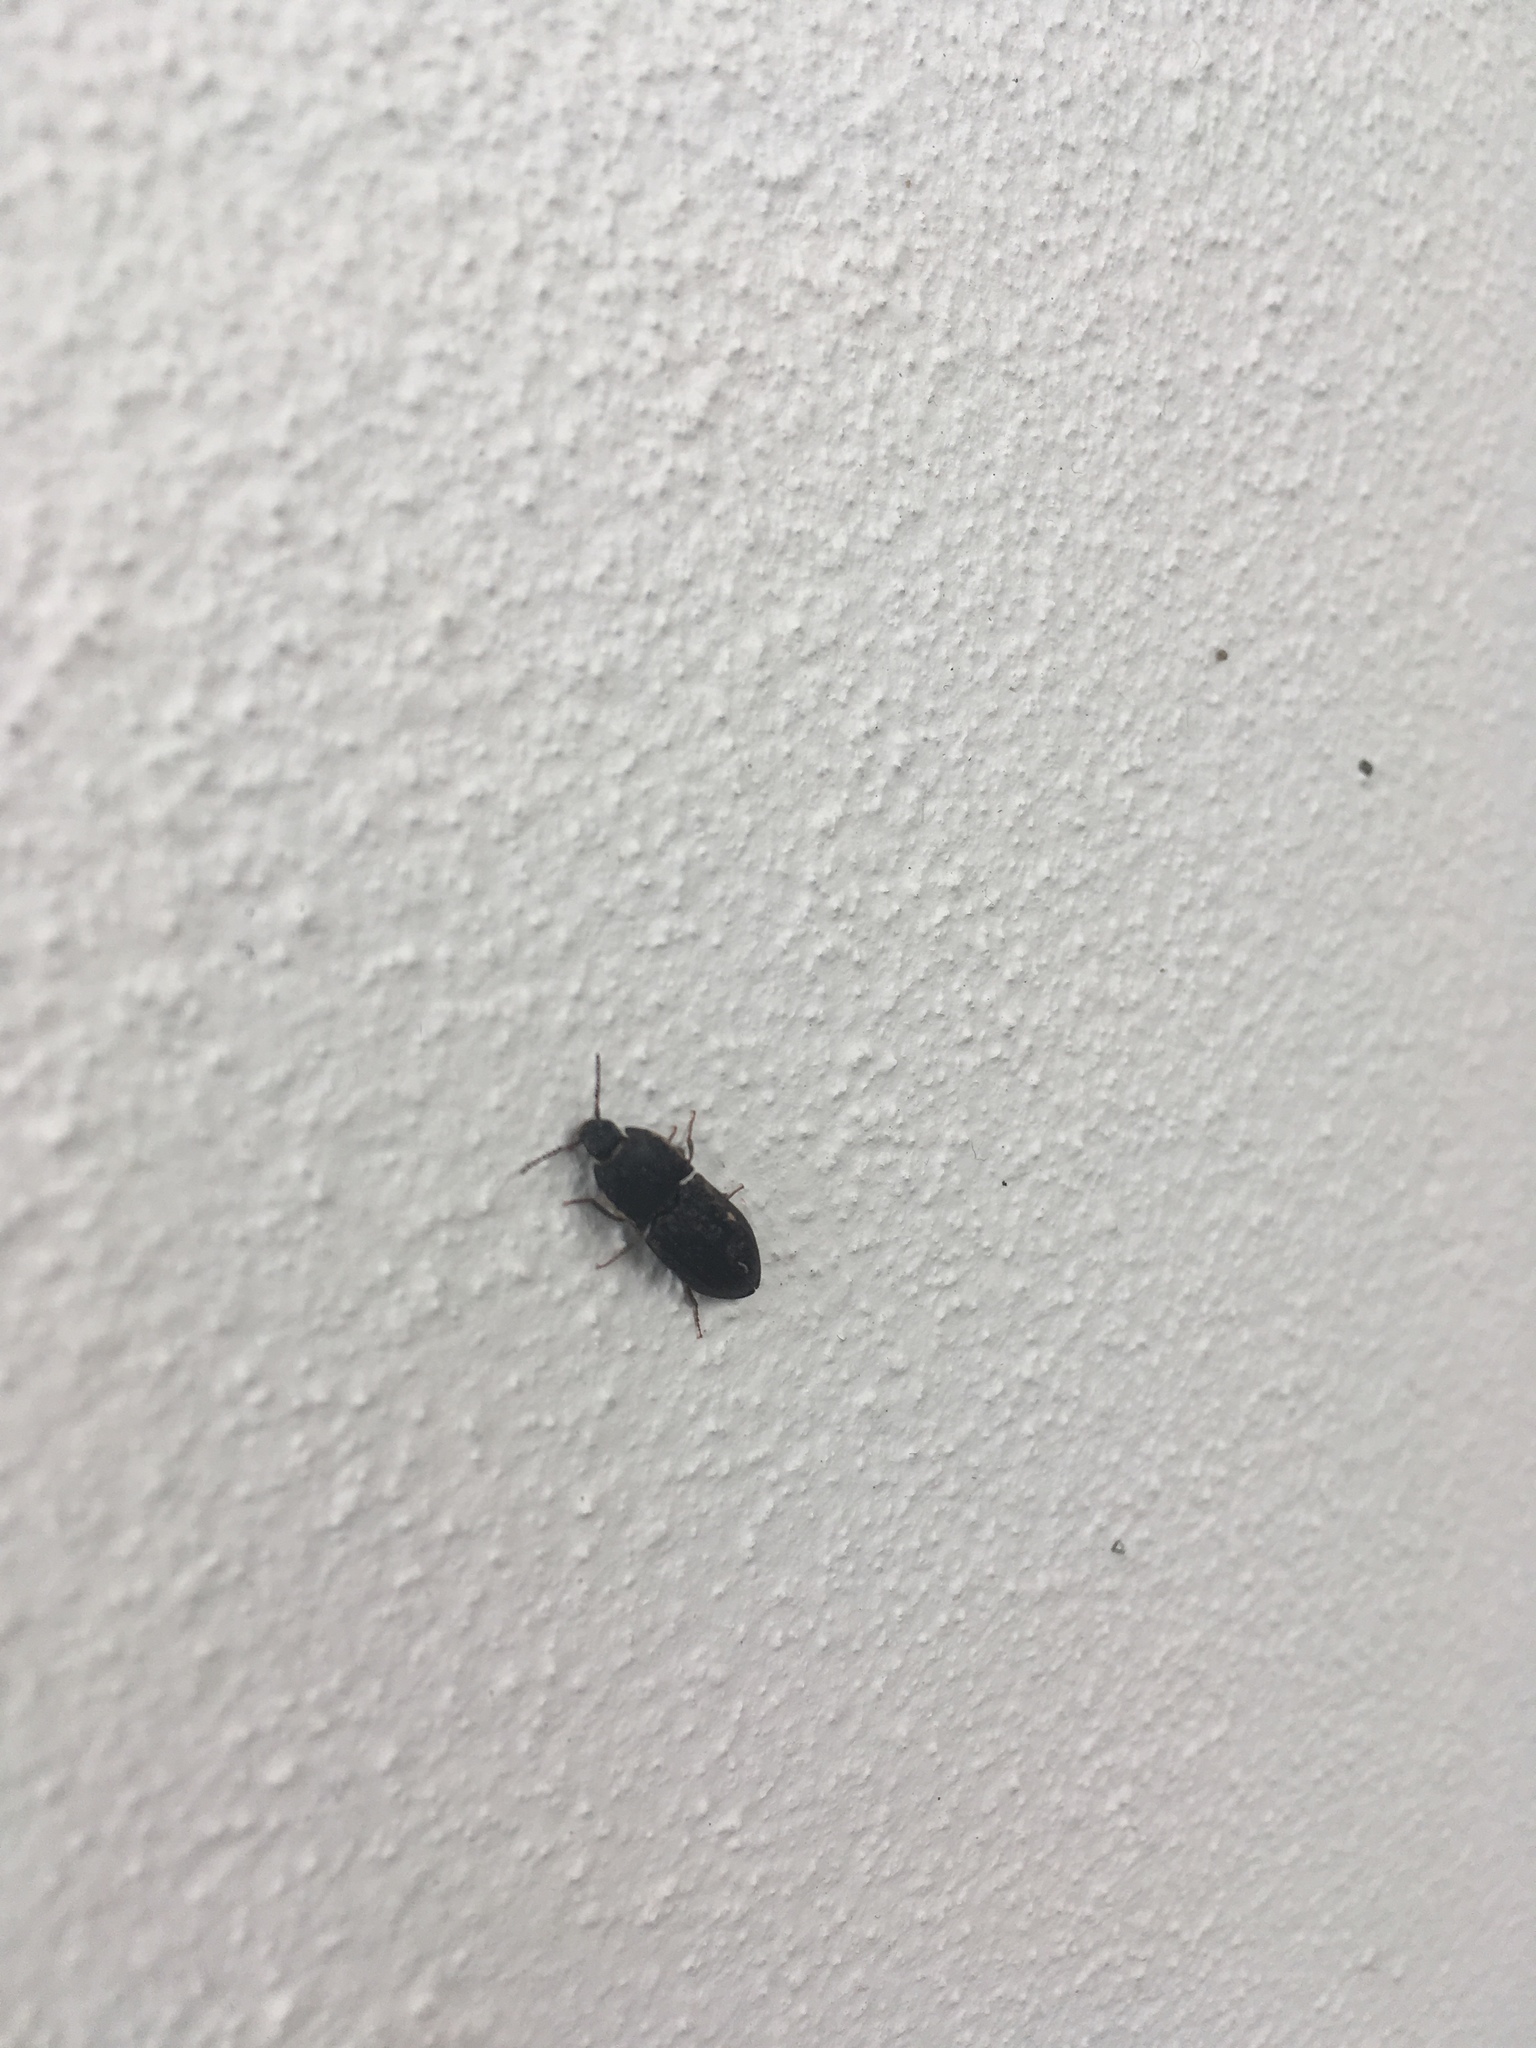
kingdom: Animalia
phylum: Arthropoda
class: Insecta
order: Coleoptera
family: Elateridae
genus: Agrypnus
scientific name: Agrypnus
